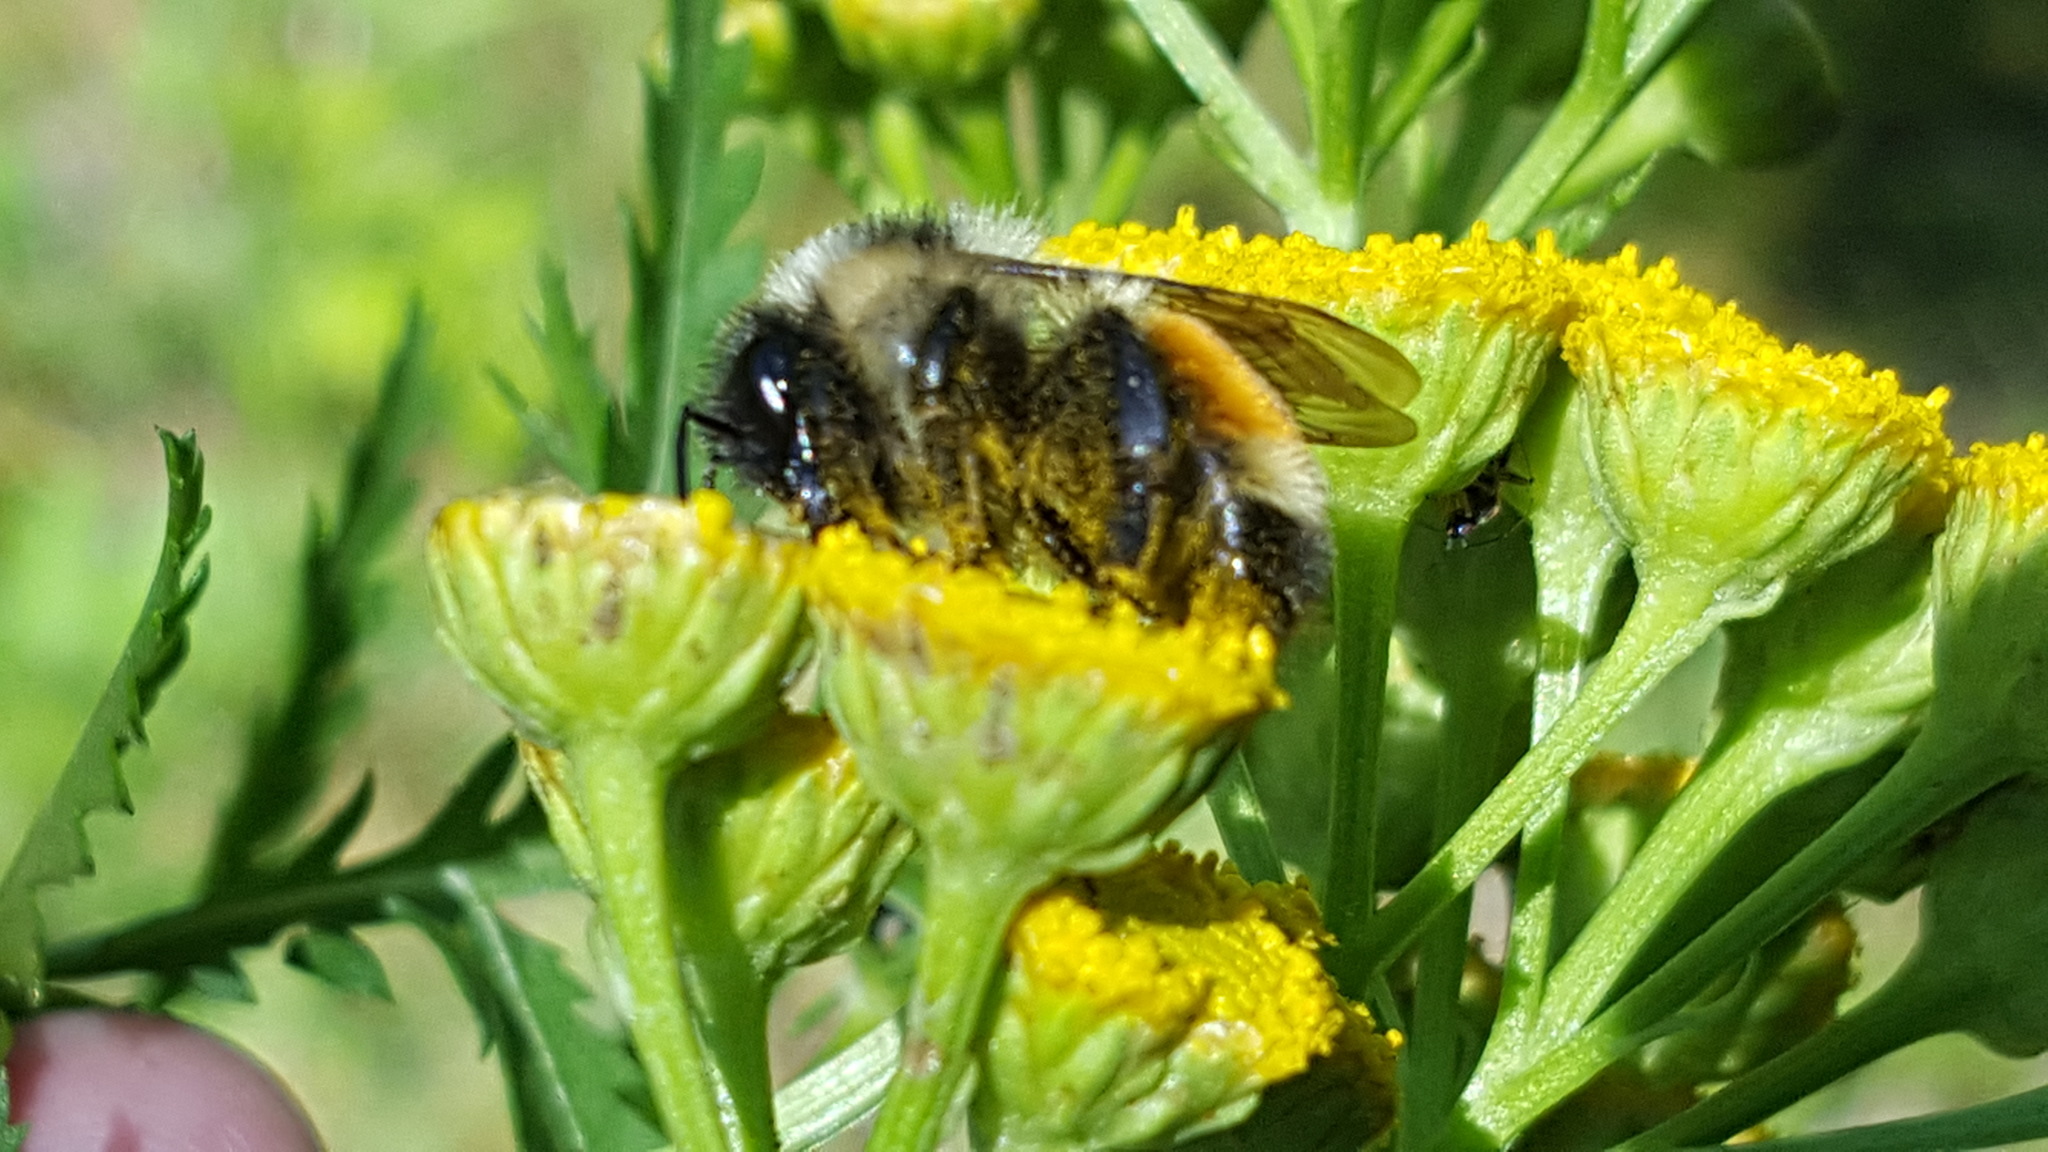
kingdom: Animalia
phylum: Arthropoda
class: Insecta
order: Hymenoptera
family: Apidae
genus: Bombus
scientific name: Bombus ternarius
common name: Tri-colored bumble bee
